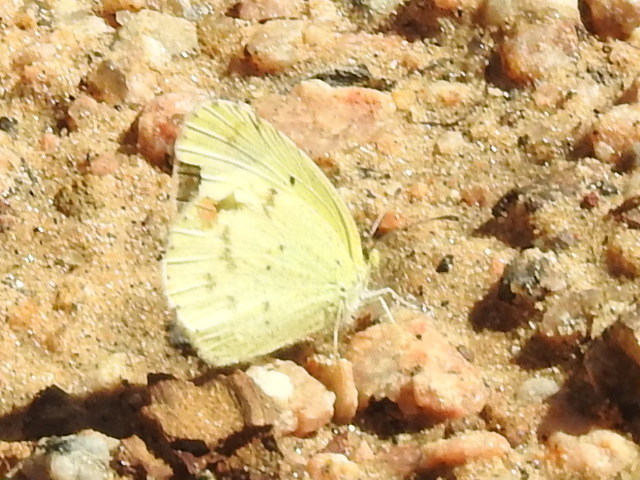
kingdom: Animalia
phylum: Arthropoda
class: Insecta
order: Lepidoptera
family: Pieridae
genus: Pyrisitia
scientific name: Pyrisitia lisa
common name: Little yellow
